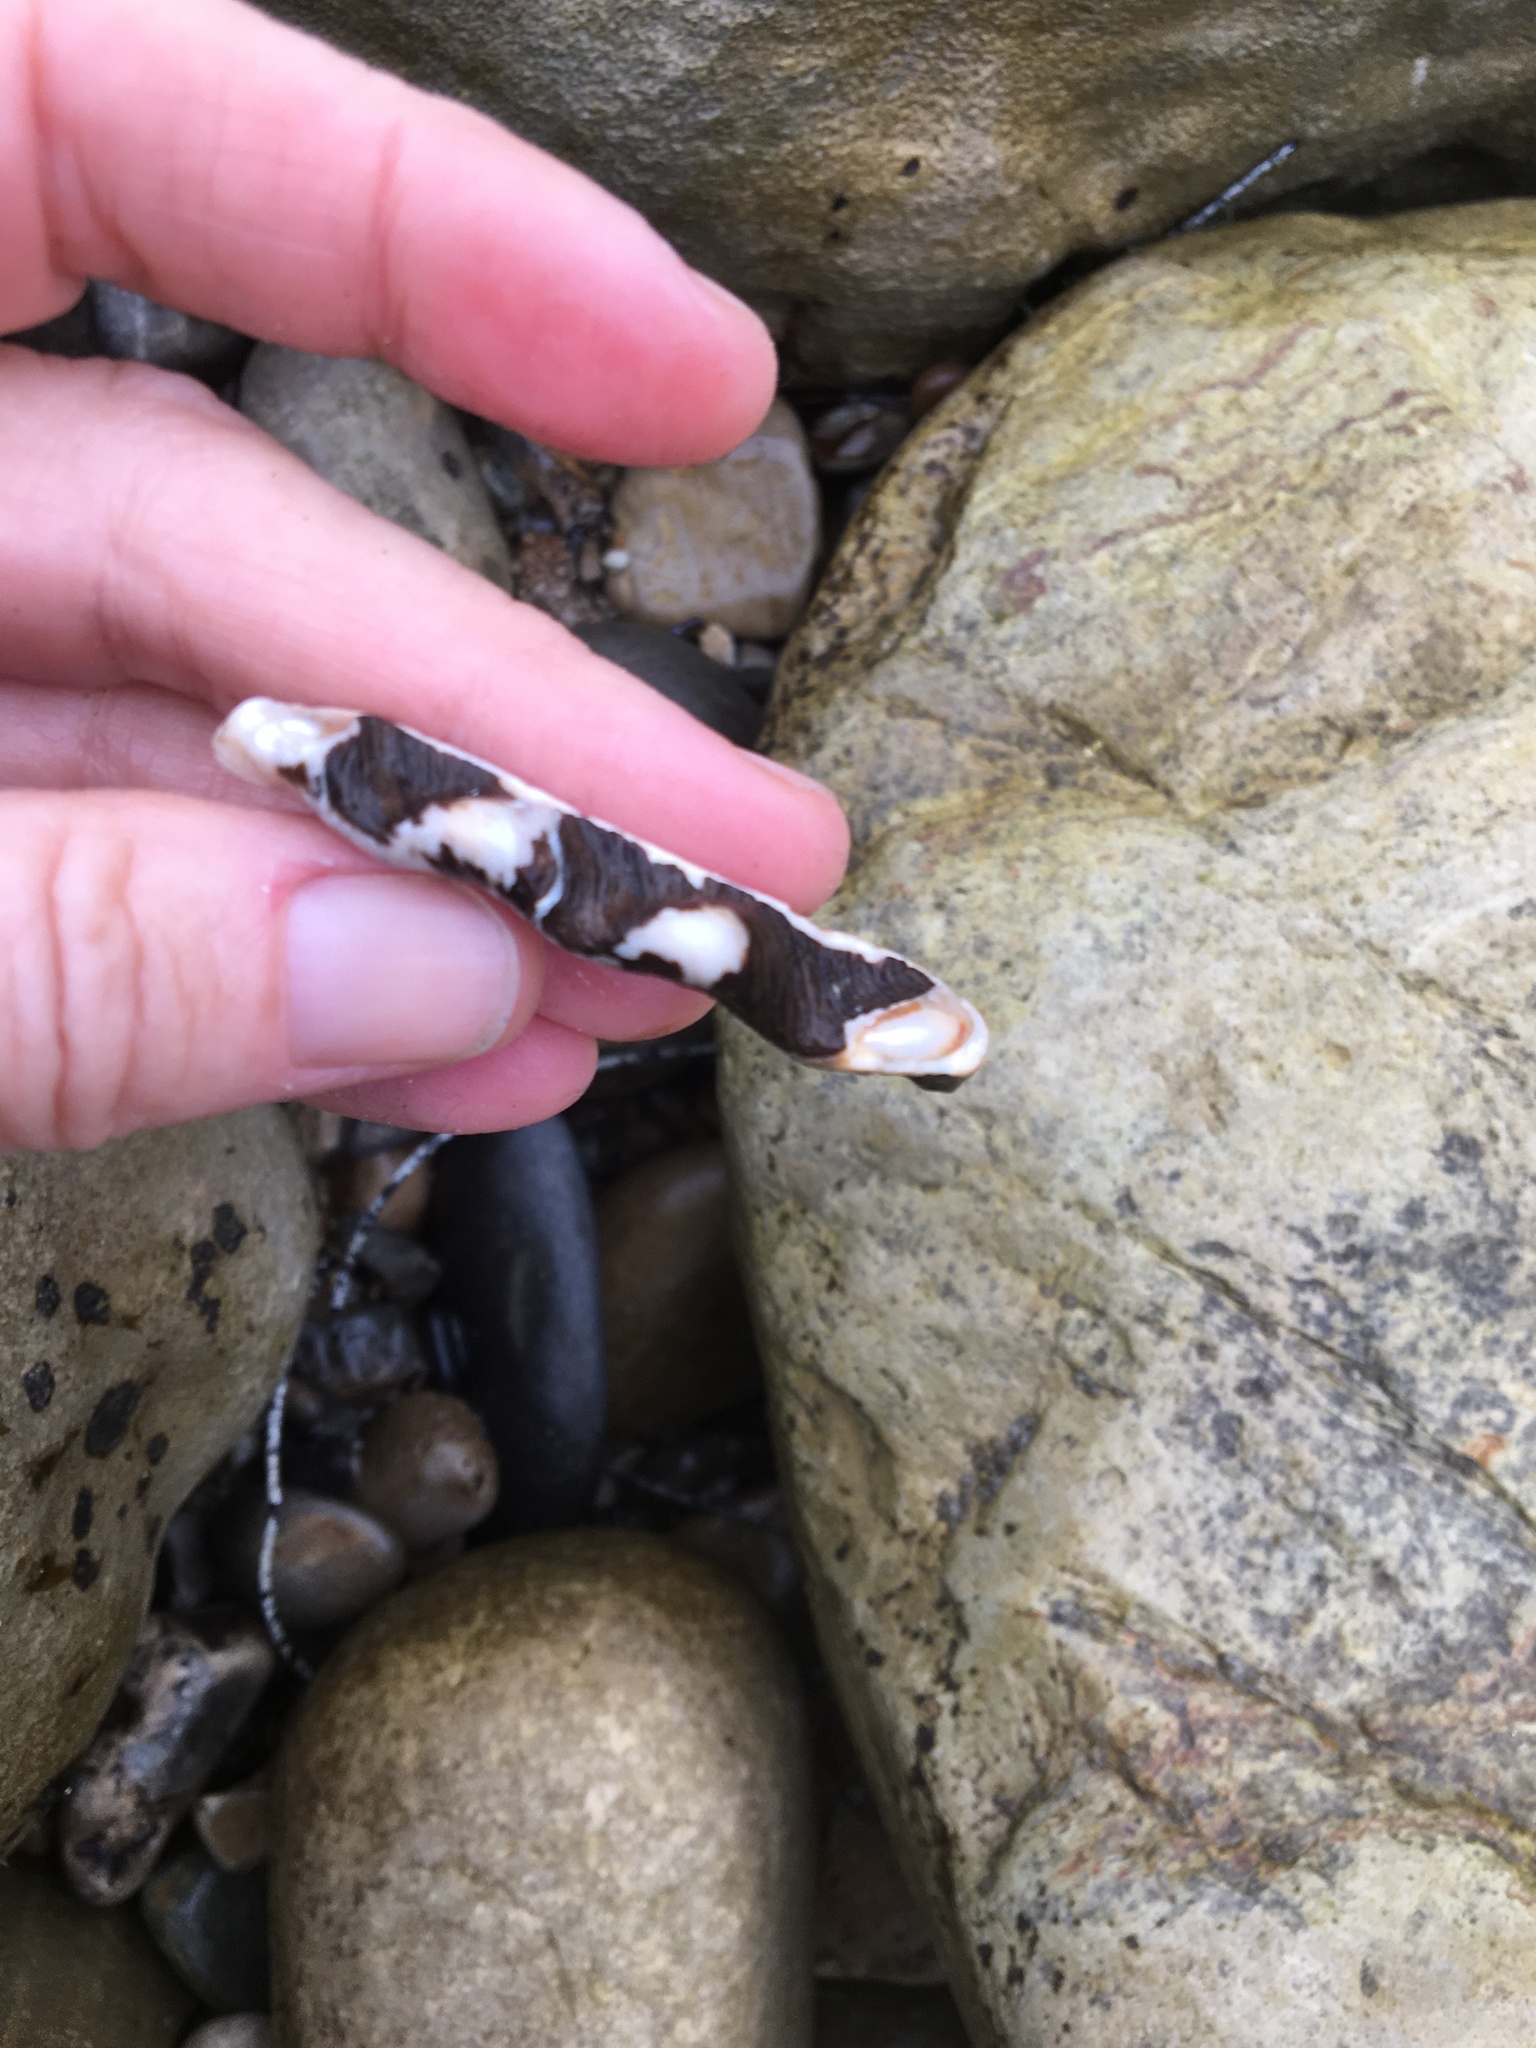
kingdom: Animalia
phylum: Mollusca
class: Gastropoda
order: Trochida
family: Turbinidae
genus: Megastraea
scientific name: Megastraea undosa
